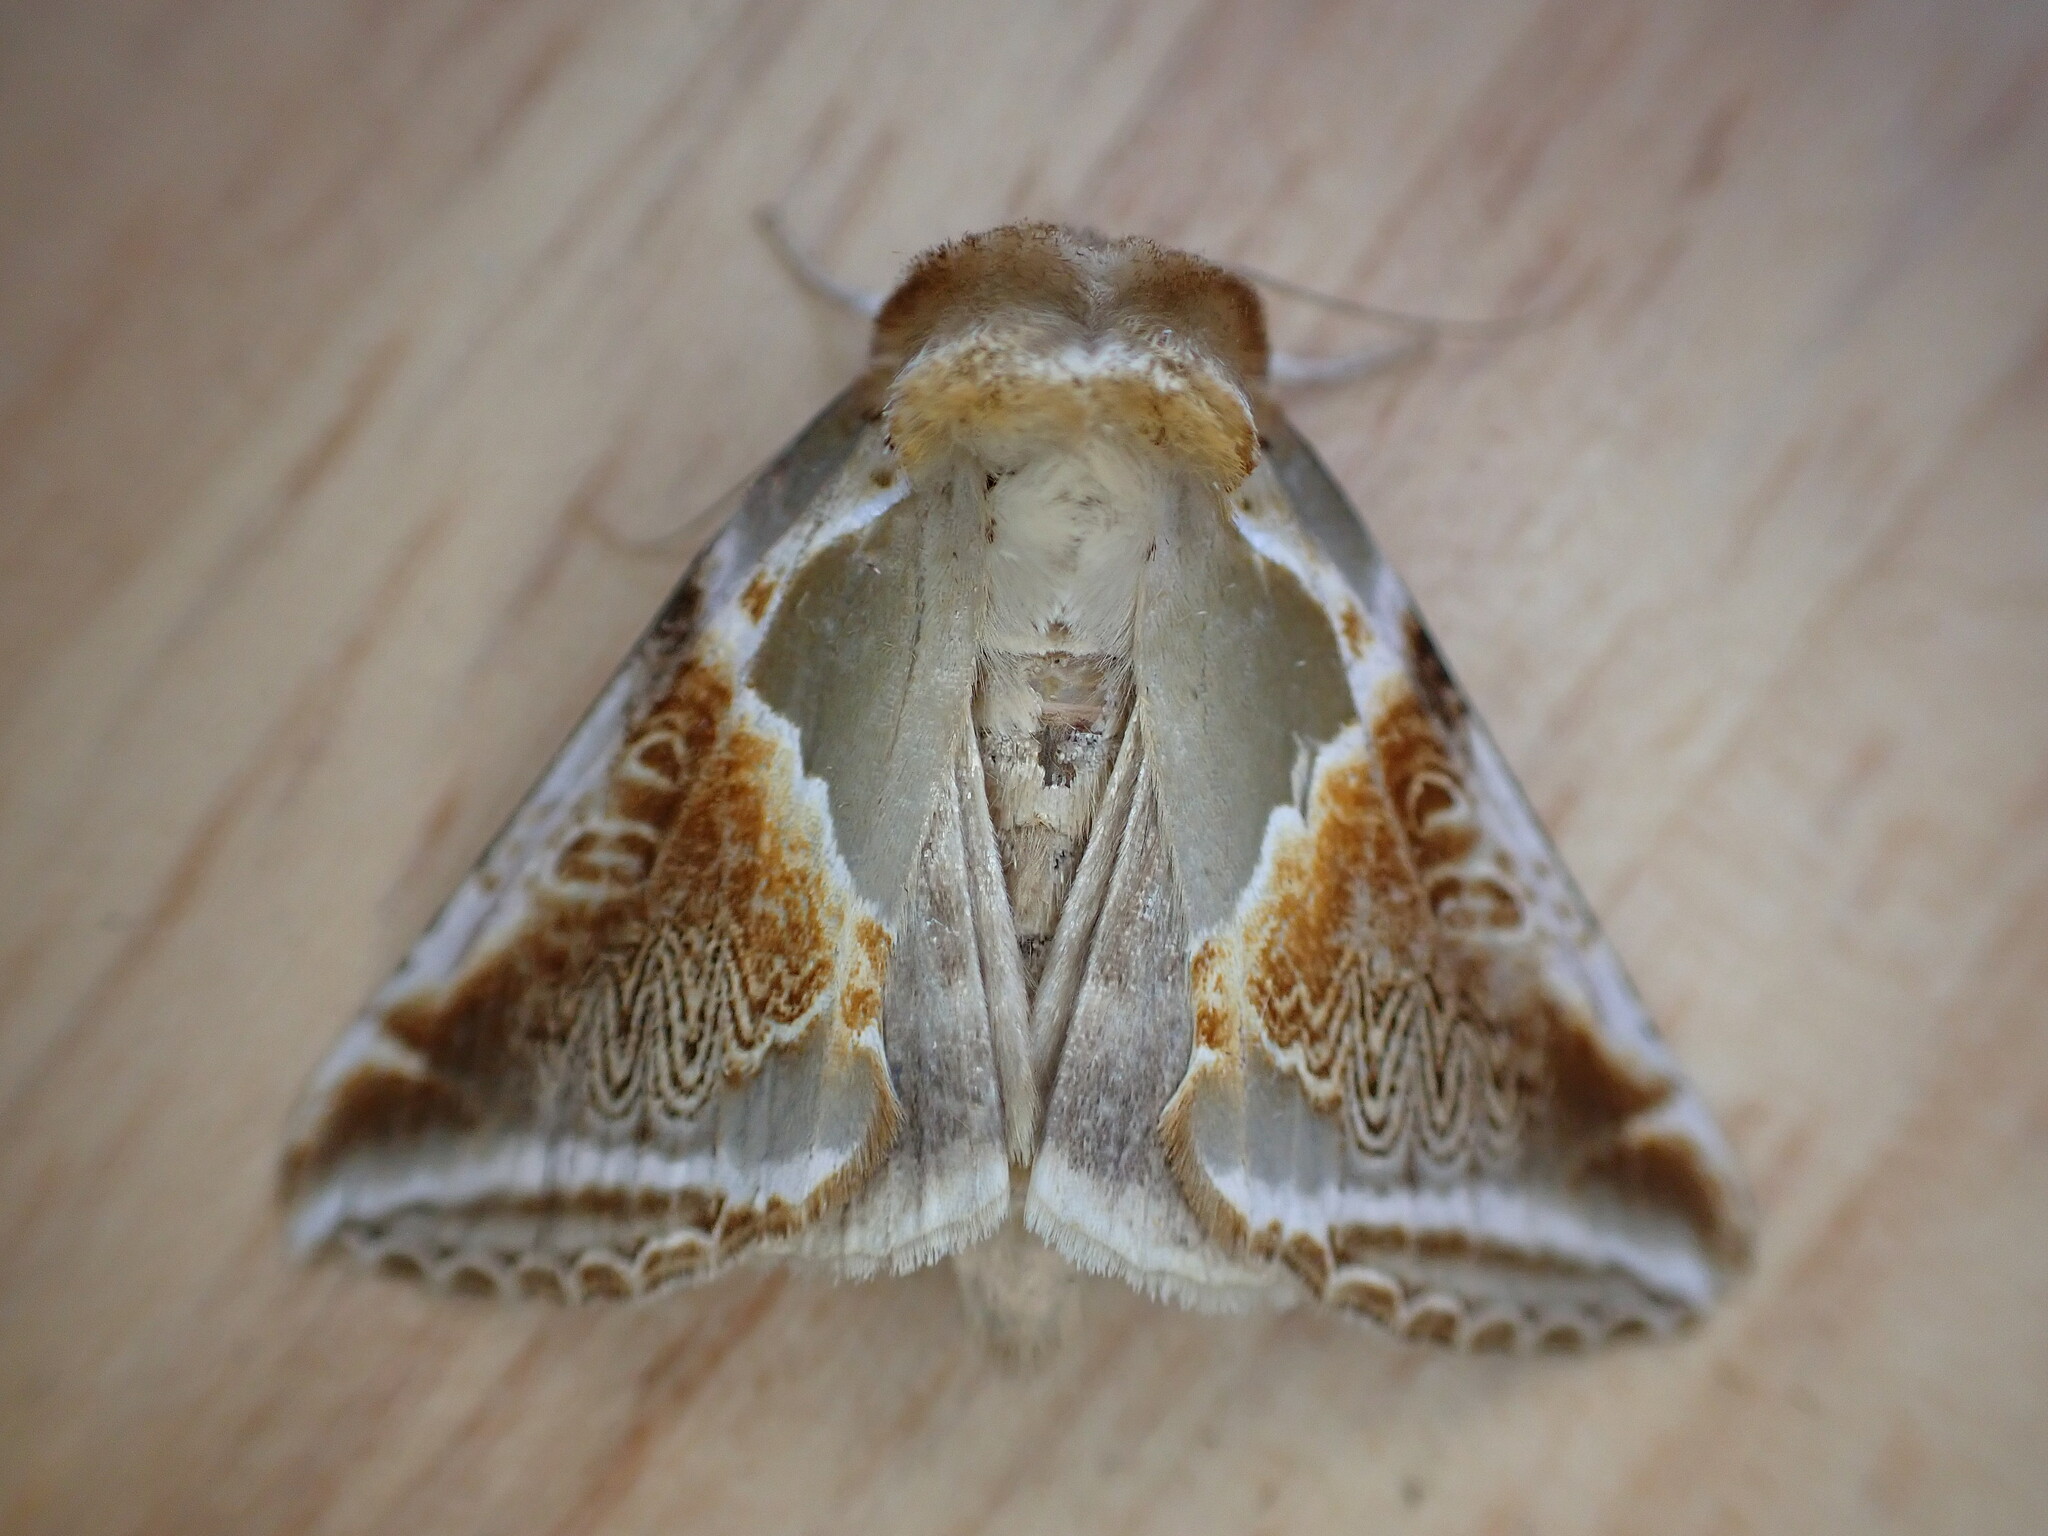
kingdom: Animalia
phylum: Arthropoda
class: Insecta
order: Lepidoptera
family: Drepanidae
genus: Habrosyne
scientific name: Habrosyne pyritoides
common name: Buff arches
